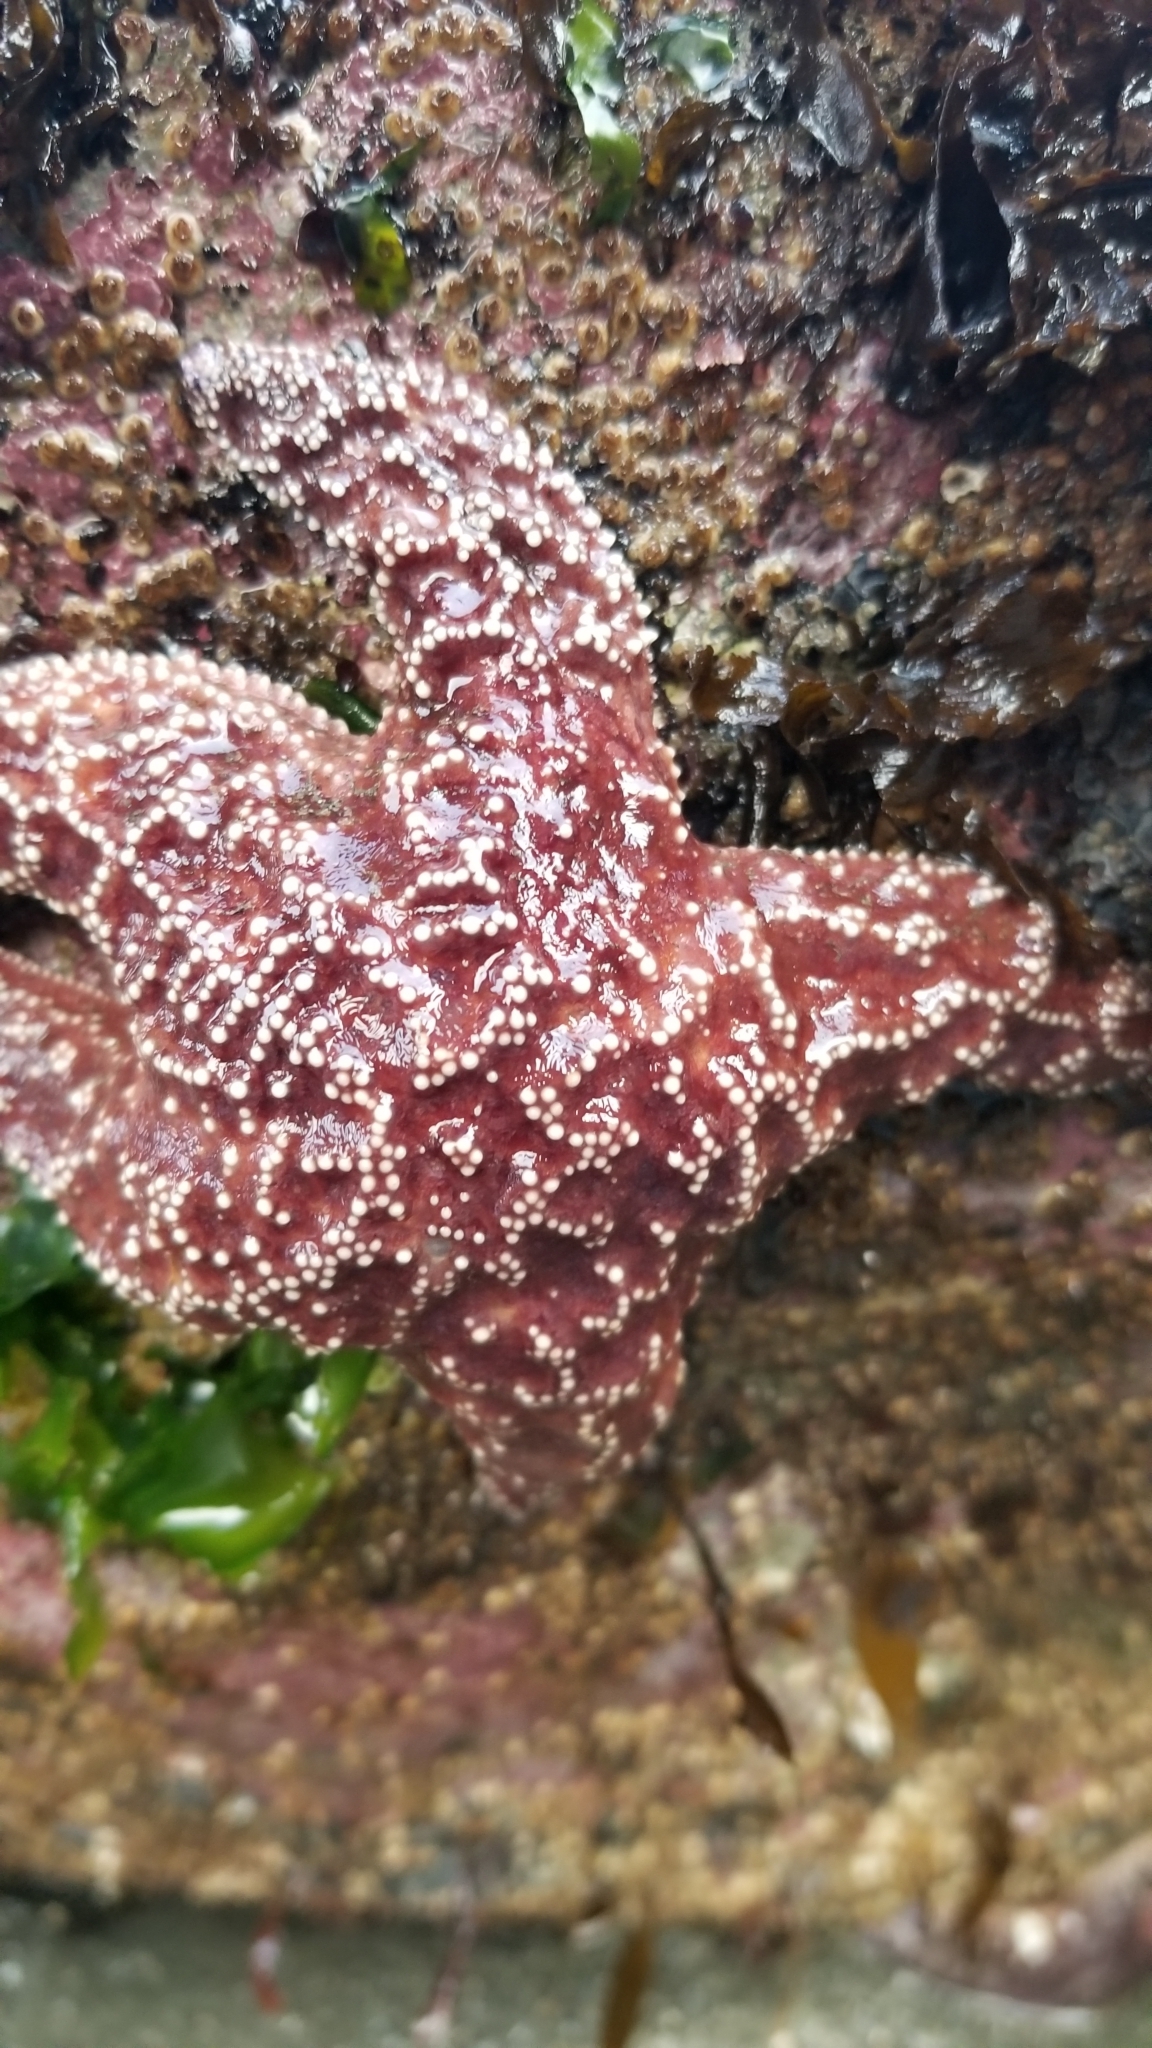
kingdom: Animalia
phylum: Echinodermata
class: Asteroidea
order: Forcipulatida
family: Asteriidae
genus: Pisaster
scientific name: Pisaster ochraceus
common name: Ochre stars
